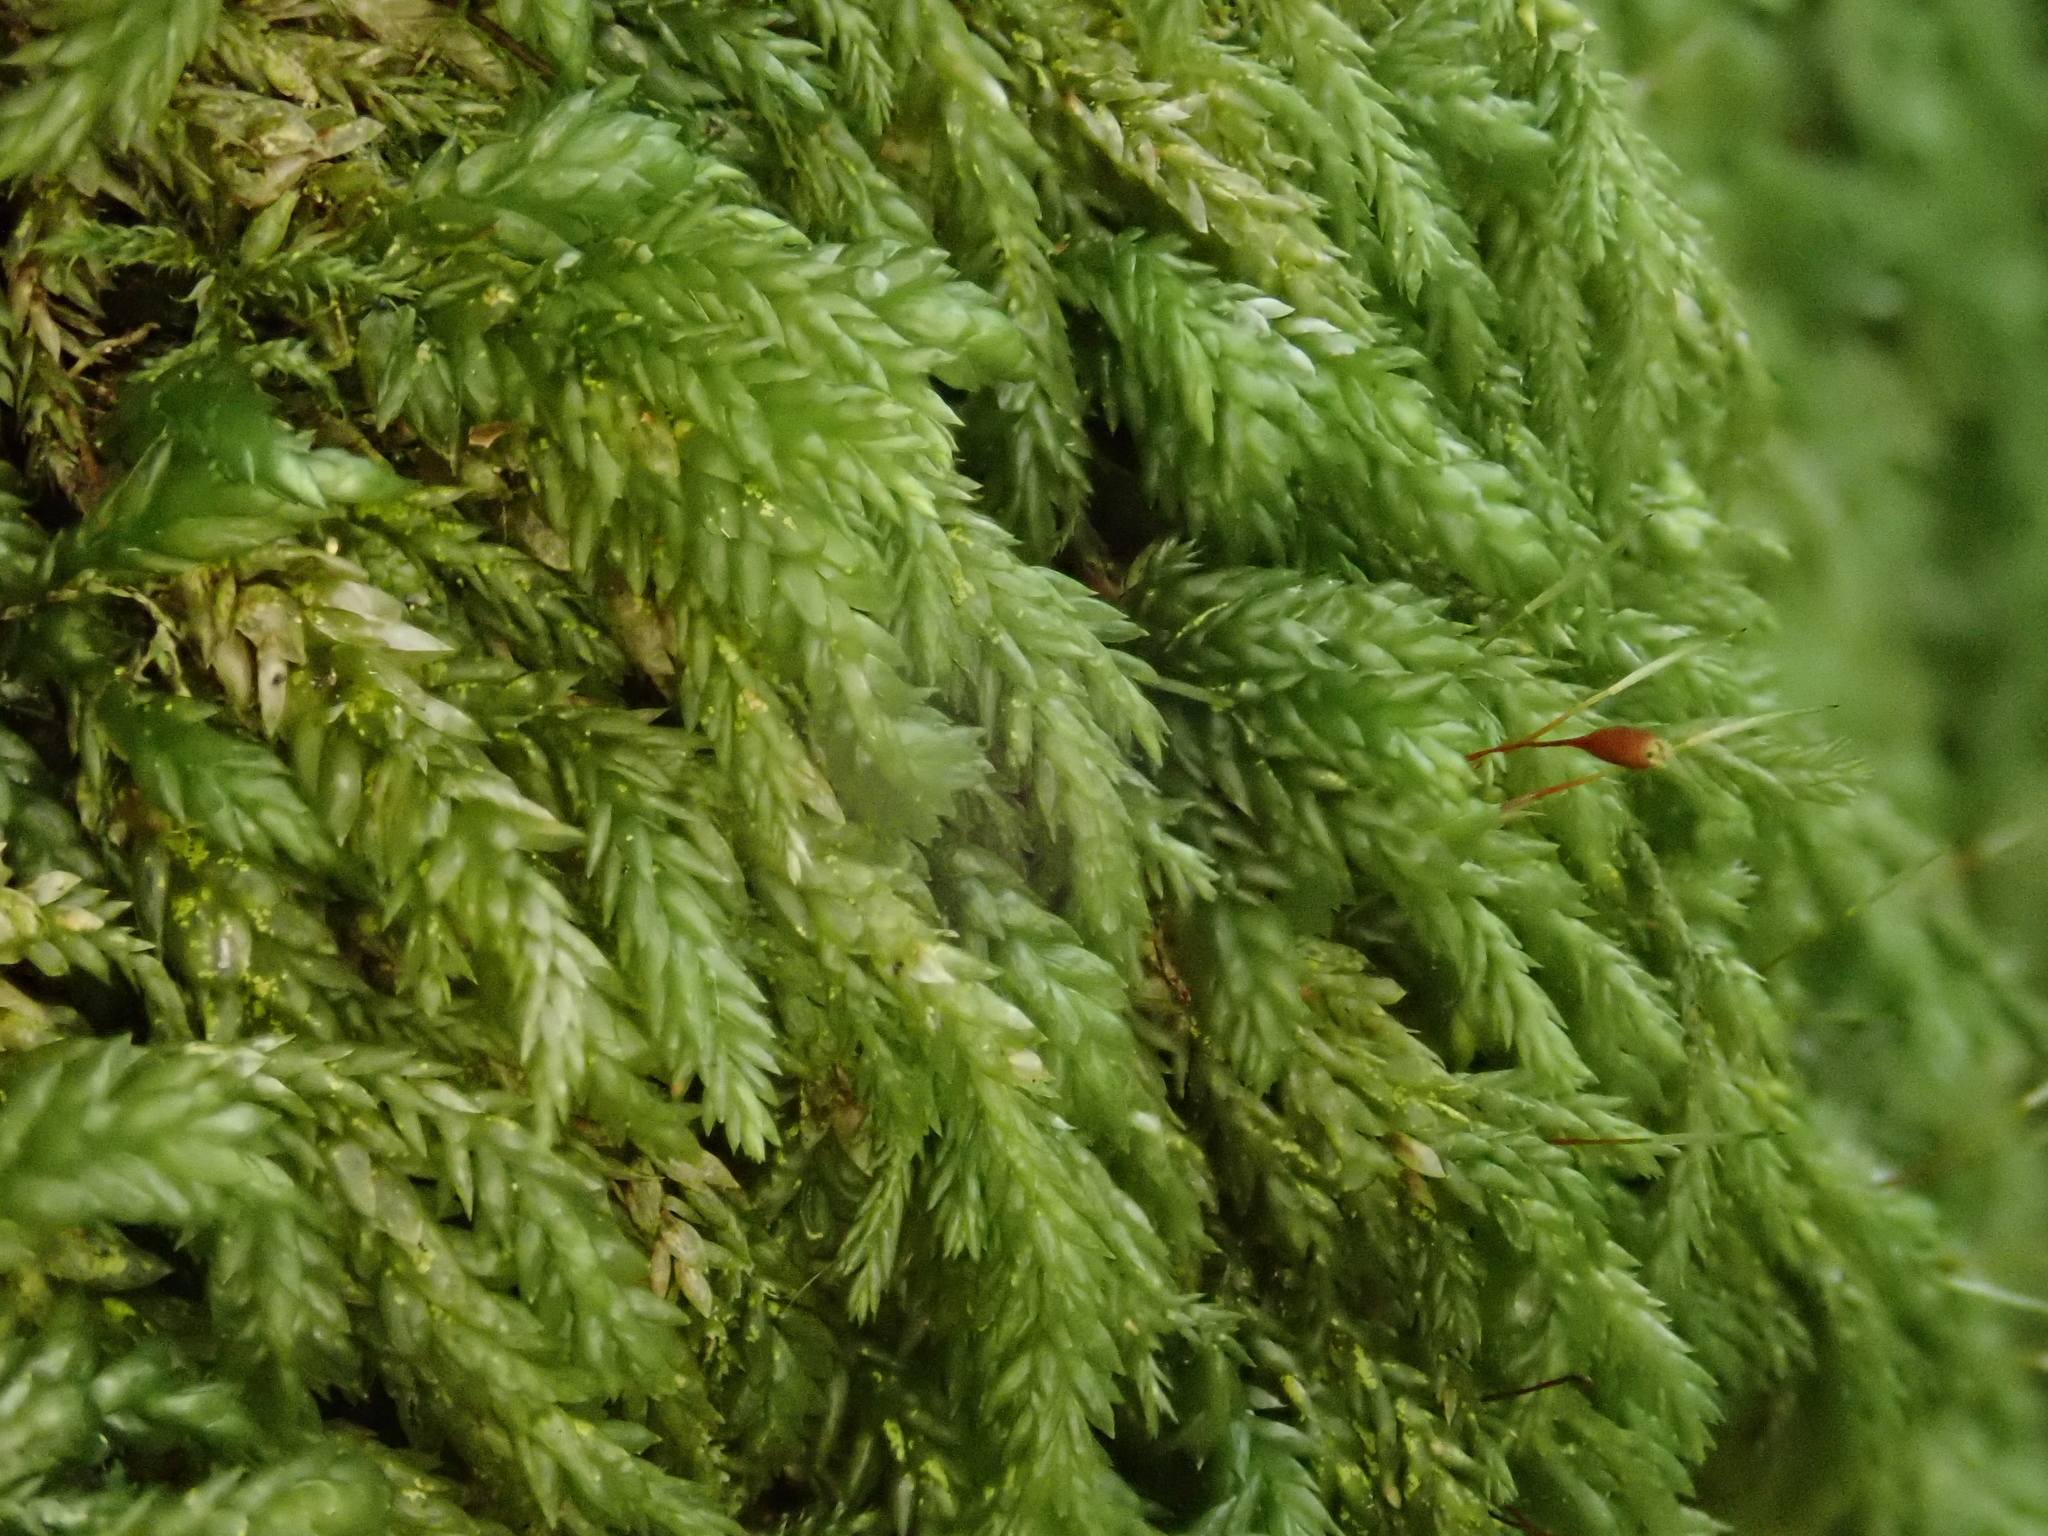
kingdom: Plantae
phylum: Bryophyta
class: Bryopsida
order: Hypnales
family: Lembophyllaceae
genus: Isothecium
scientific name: Isothecium alopecuroides
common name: Larger mouse-tail moss
